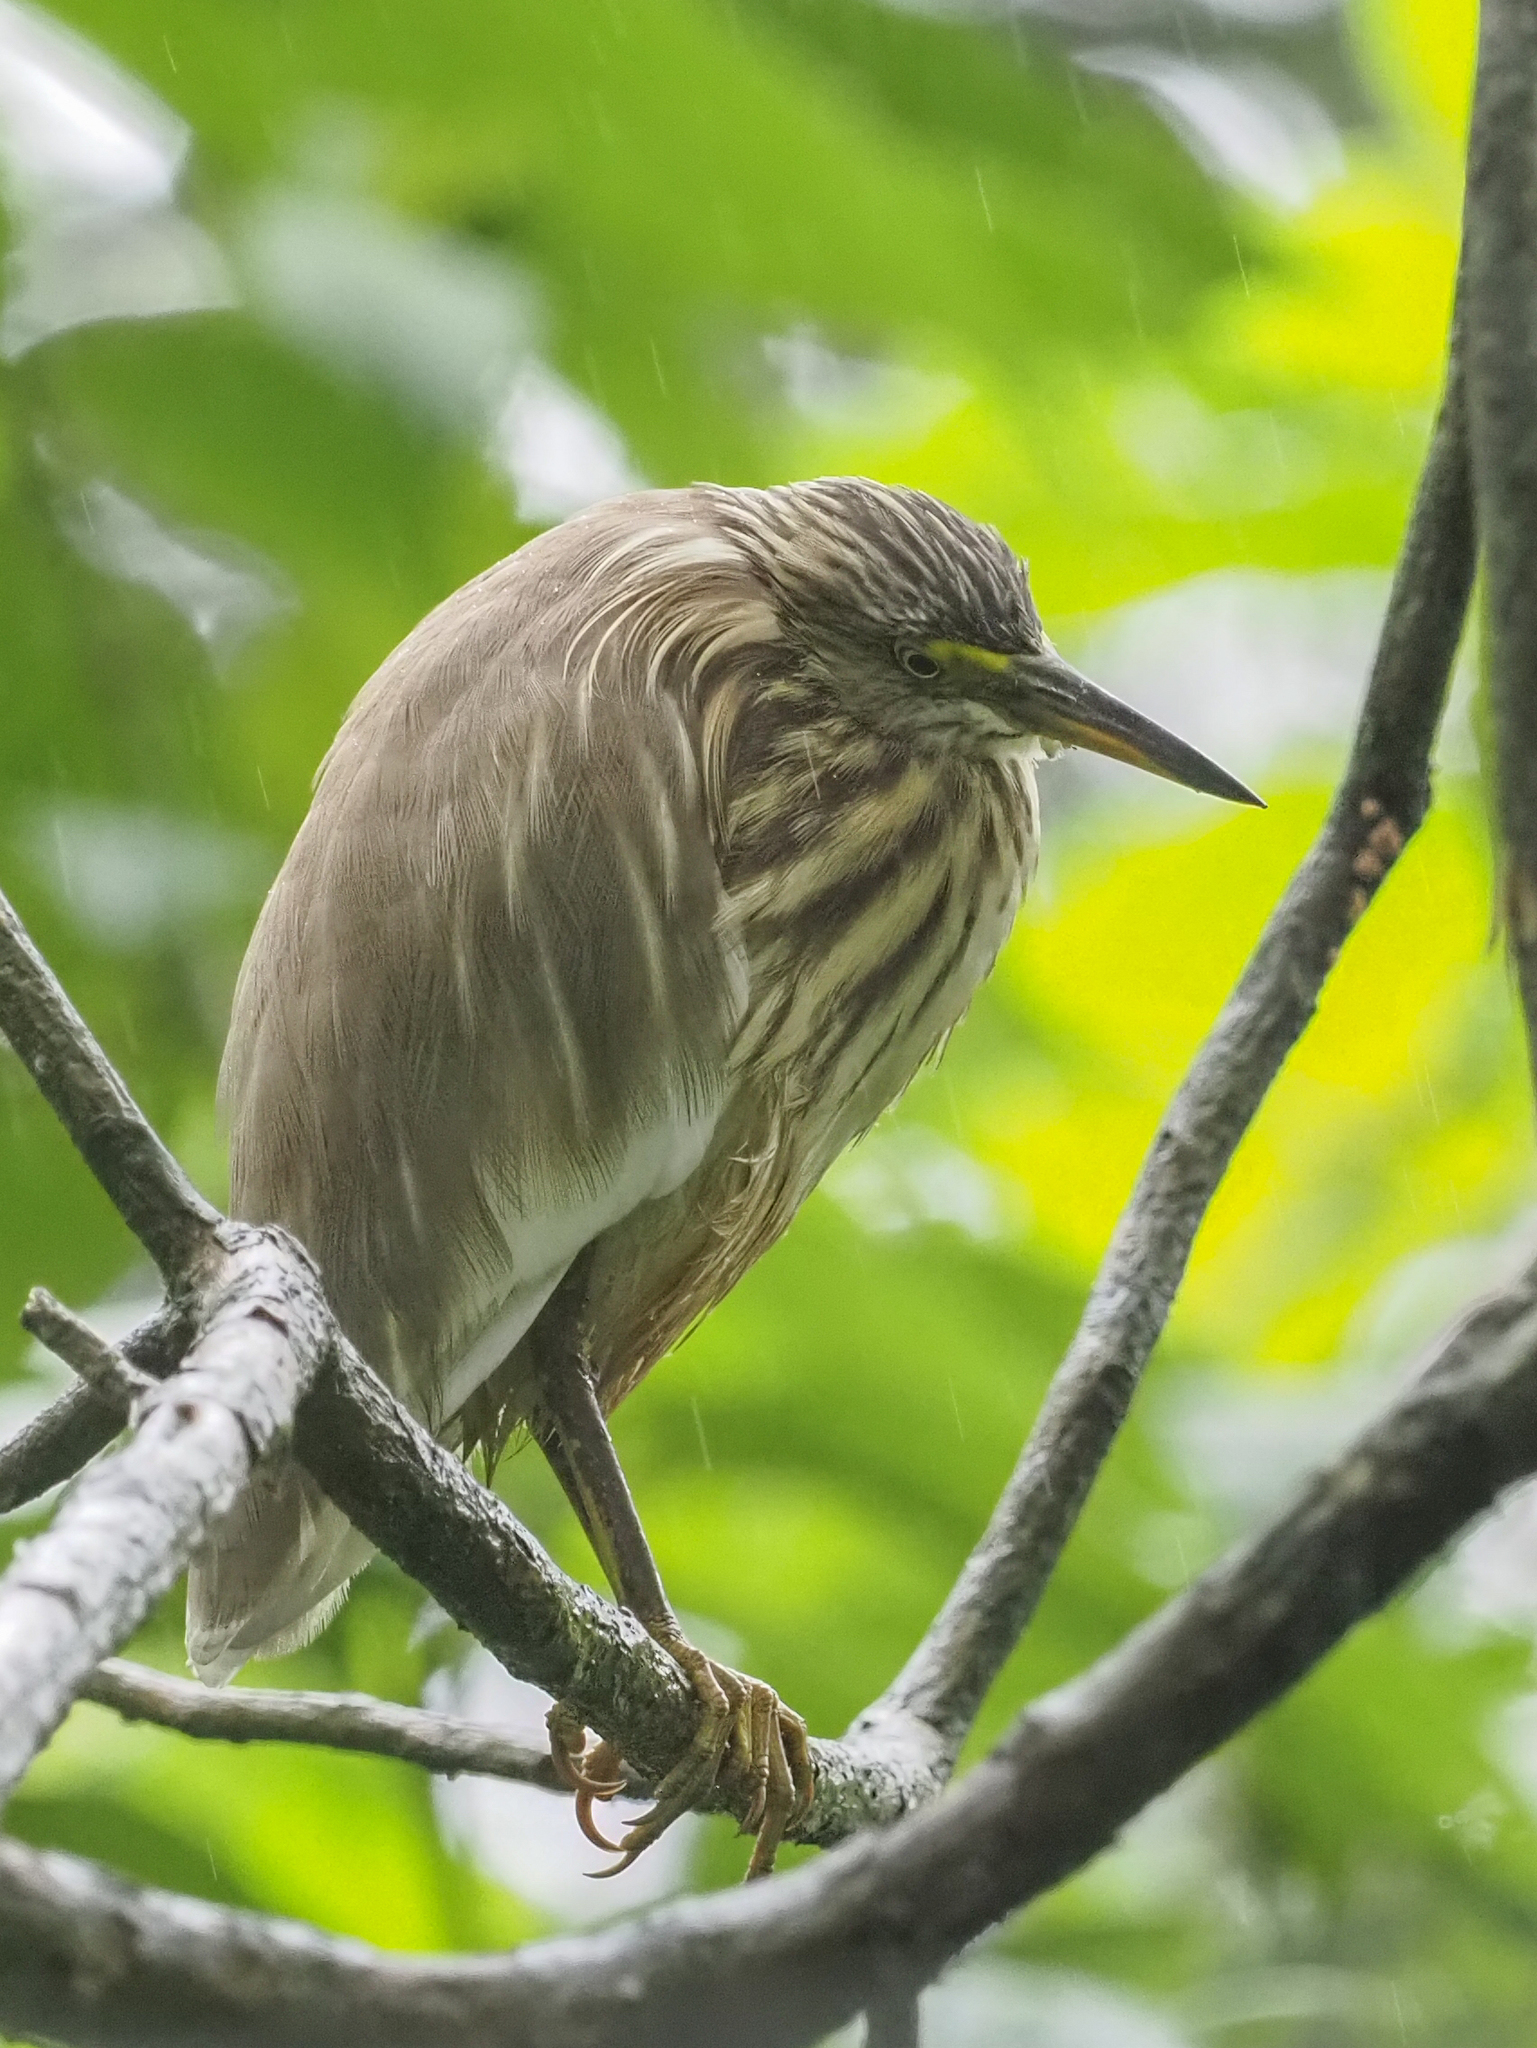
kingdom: Animalia
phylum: Chordata
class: Aves
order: Pelecaniformes
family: Ardeidae
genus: Ardeola
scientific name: Ardeola grayii
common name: Indian pond heron
